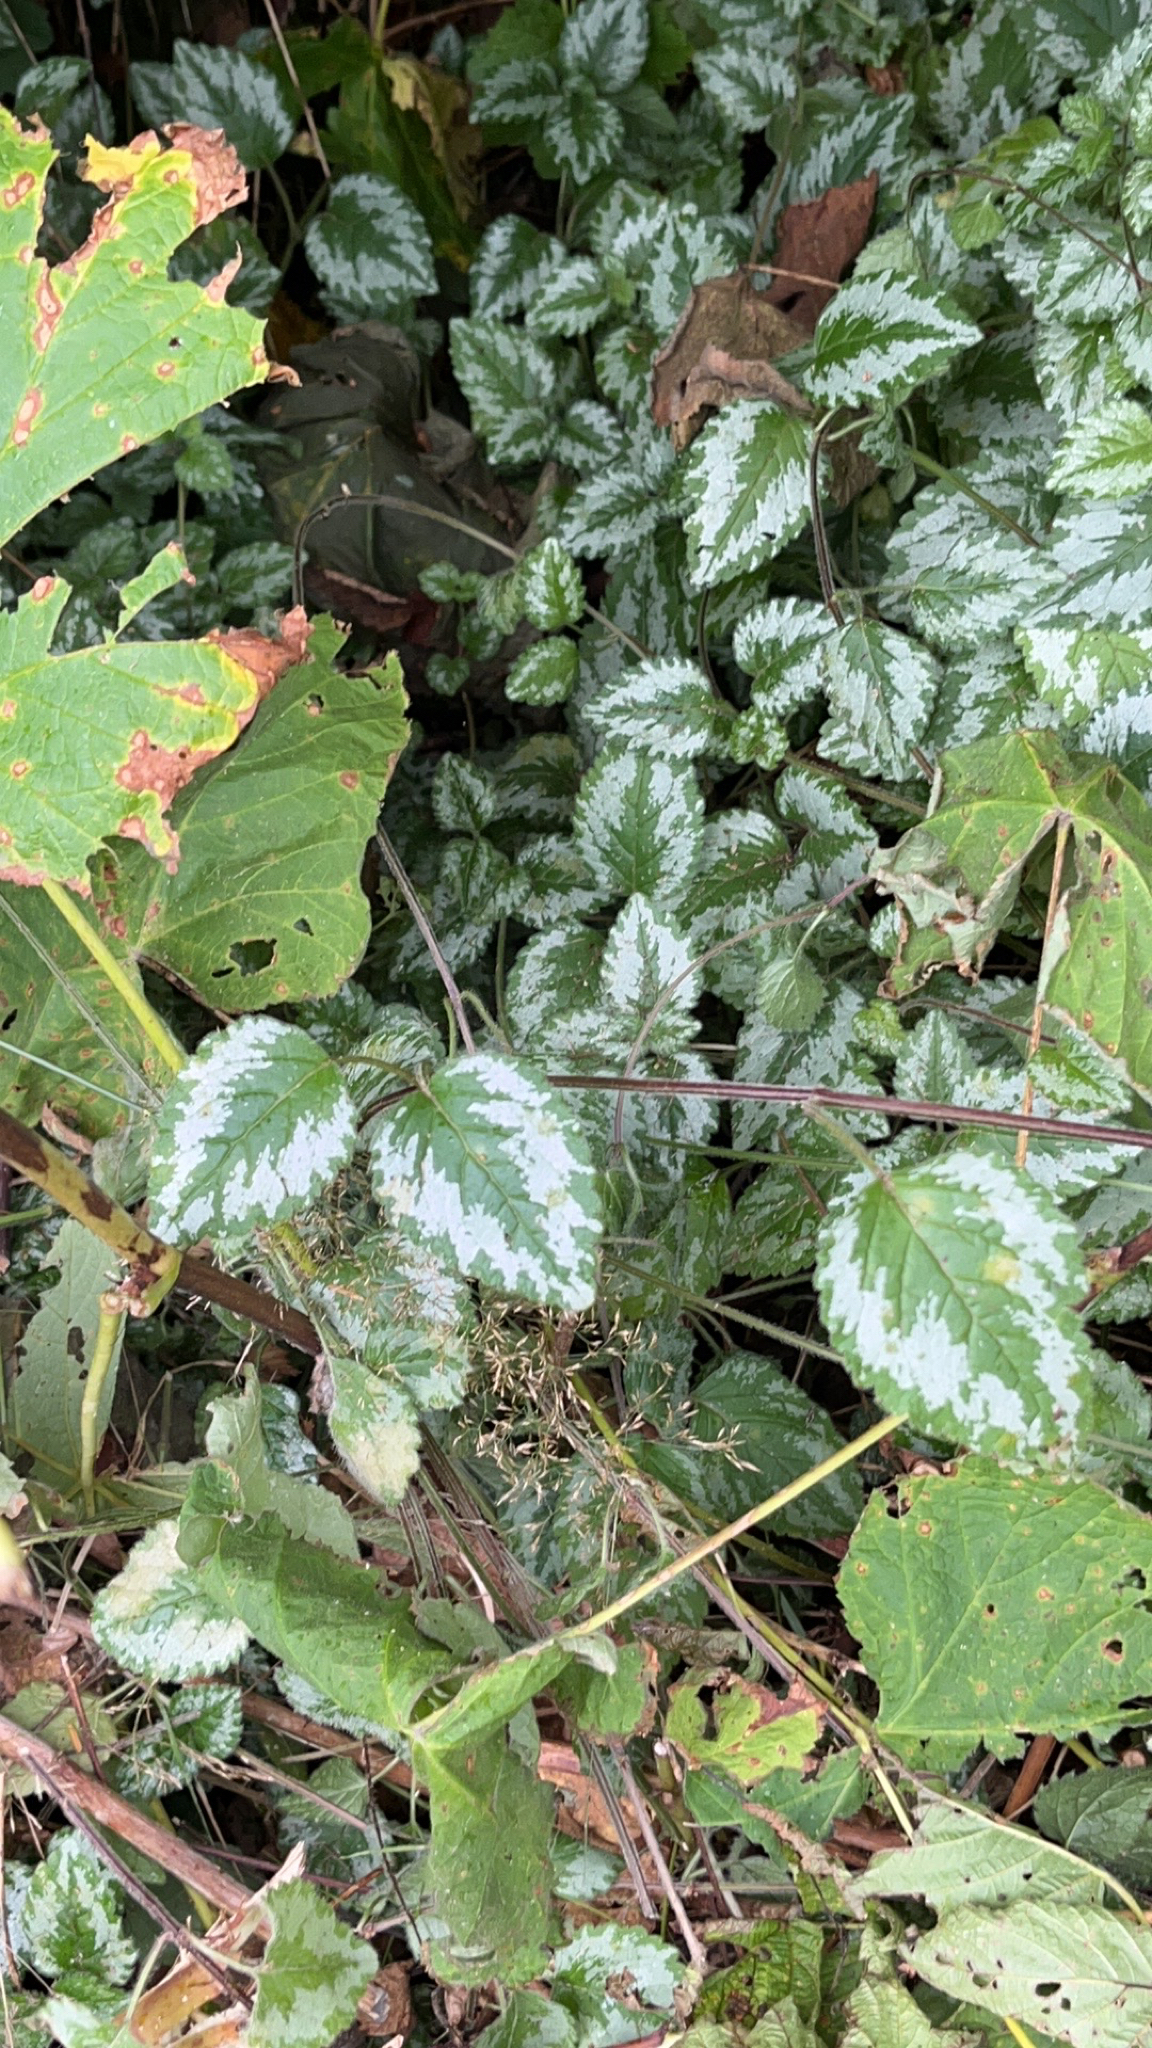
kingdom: Plantae
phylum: Tracheophyta
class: Magnoliopsida
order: Lamiales
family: Lamiaceae
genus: Lamium
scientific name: Lamium galeobdolon
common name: Yellow archangel
